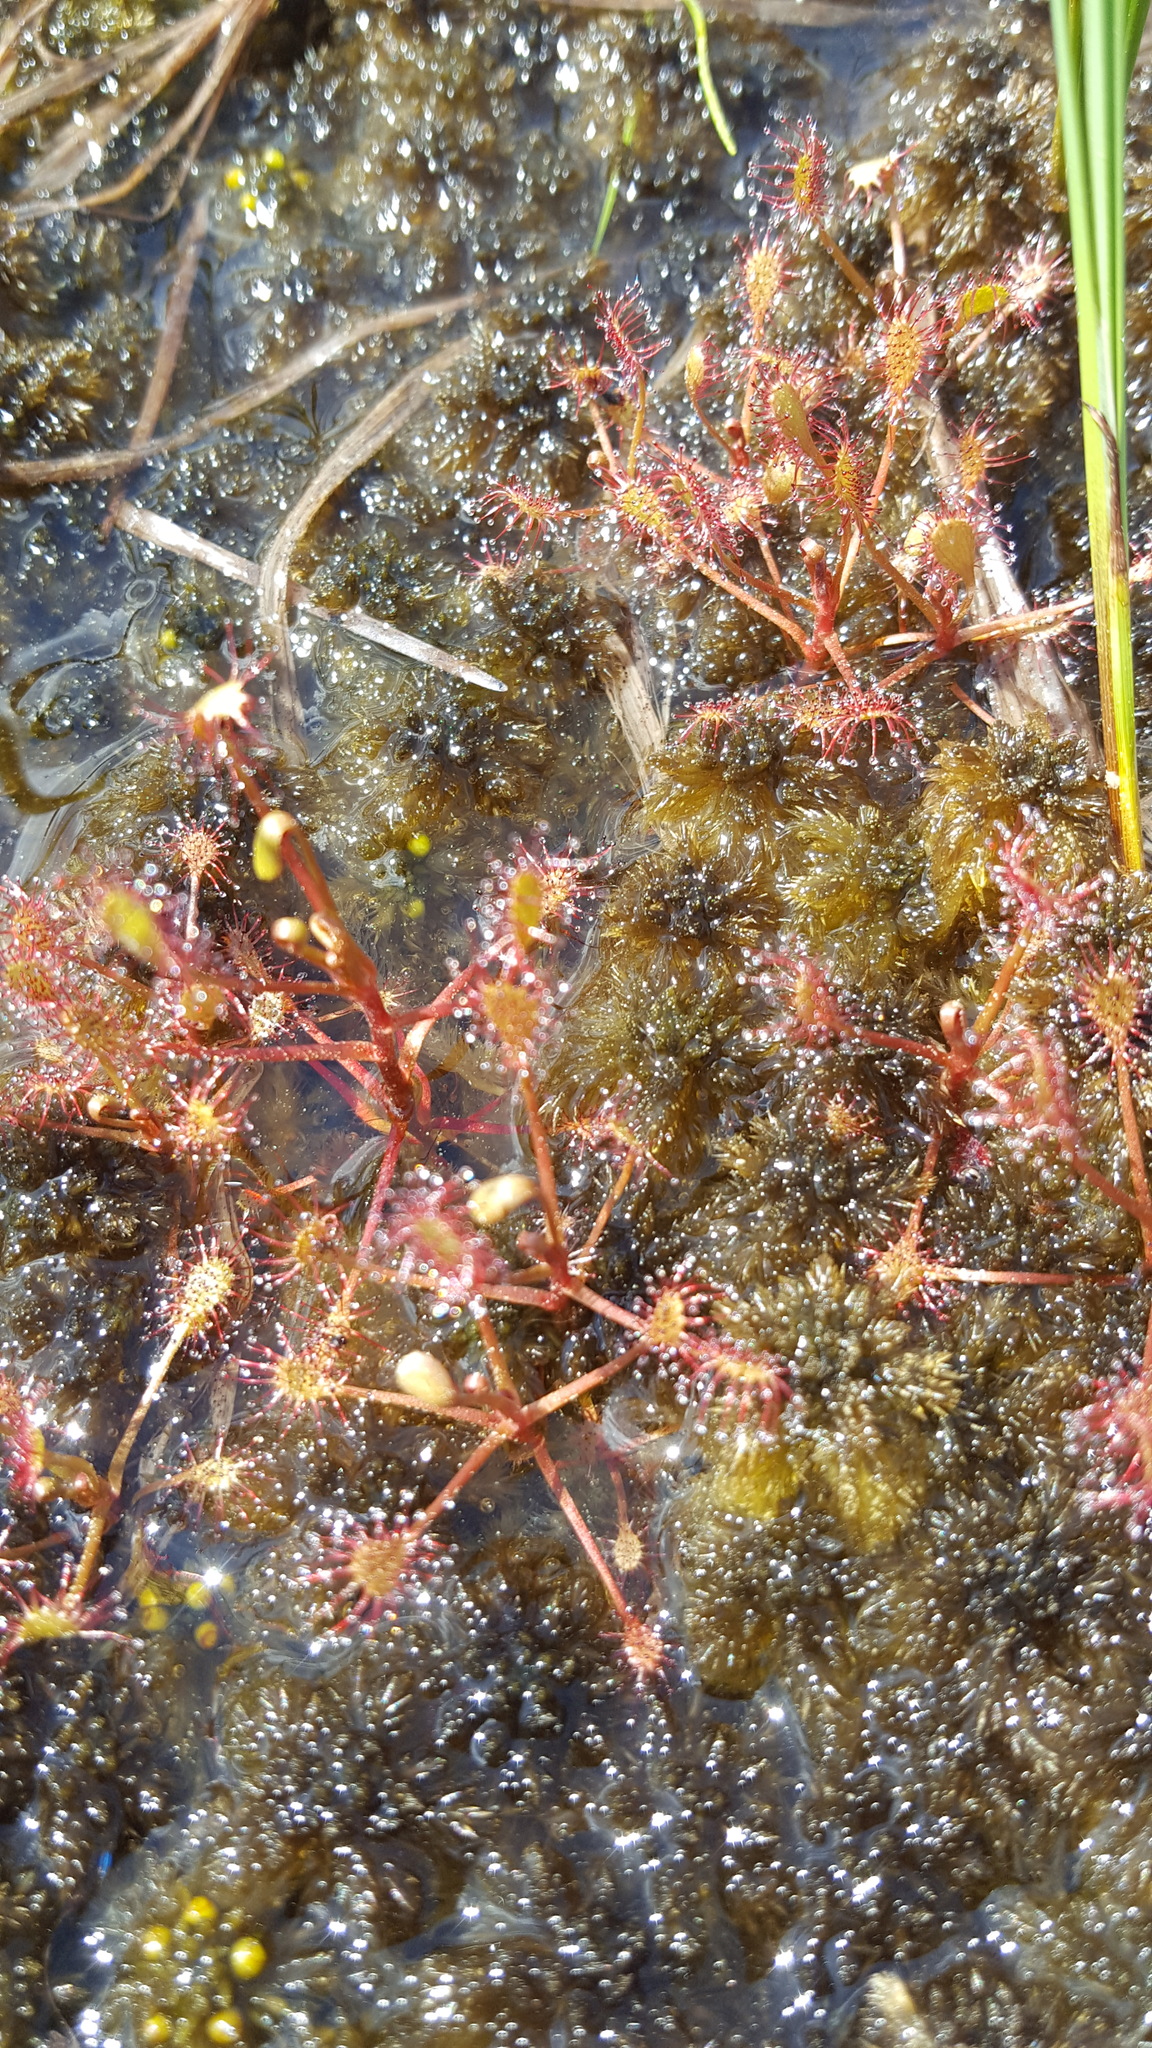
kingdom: Plantae
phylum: Tracheophyta
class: Magnoliopsida
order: Caryophyllales
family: Droseraceae
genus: Drosera
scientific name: Drosera intermedia
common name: Oblong-leaved sundew
